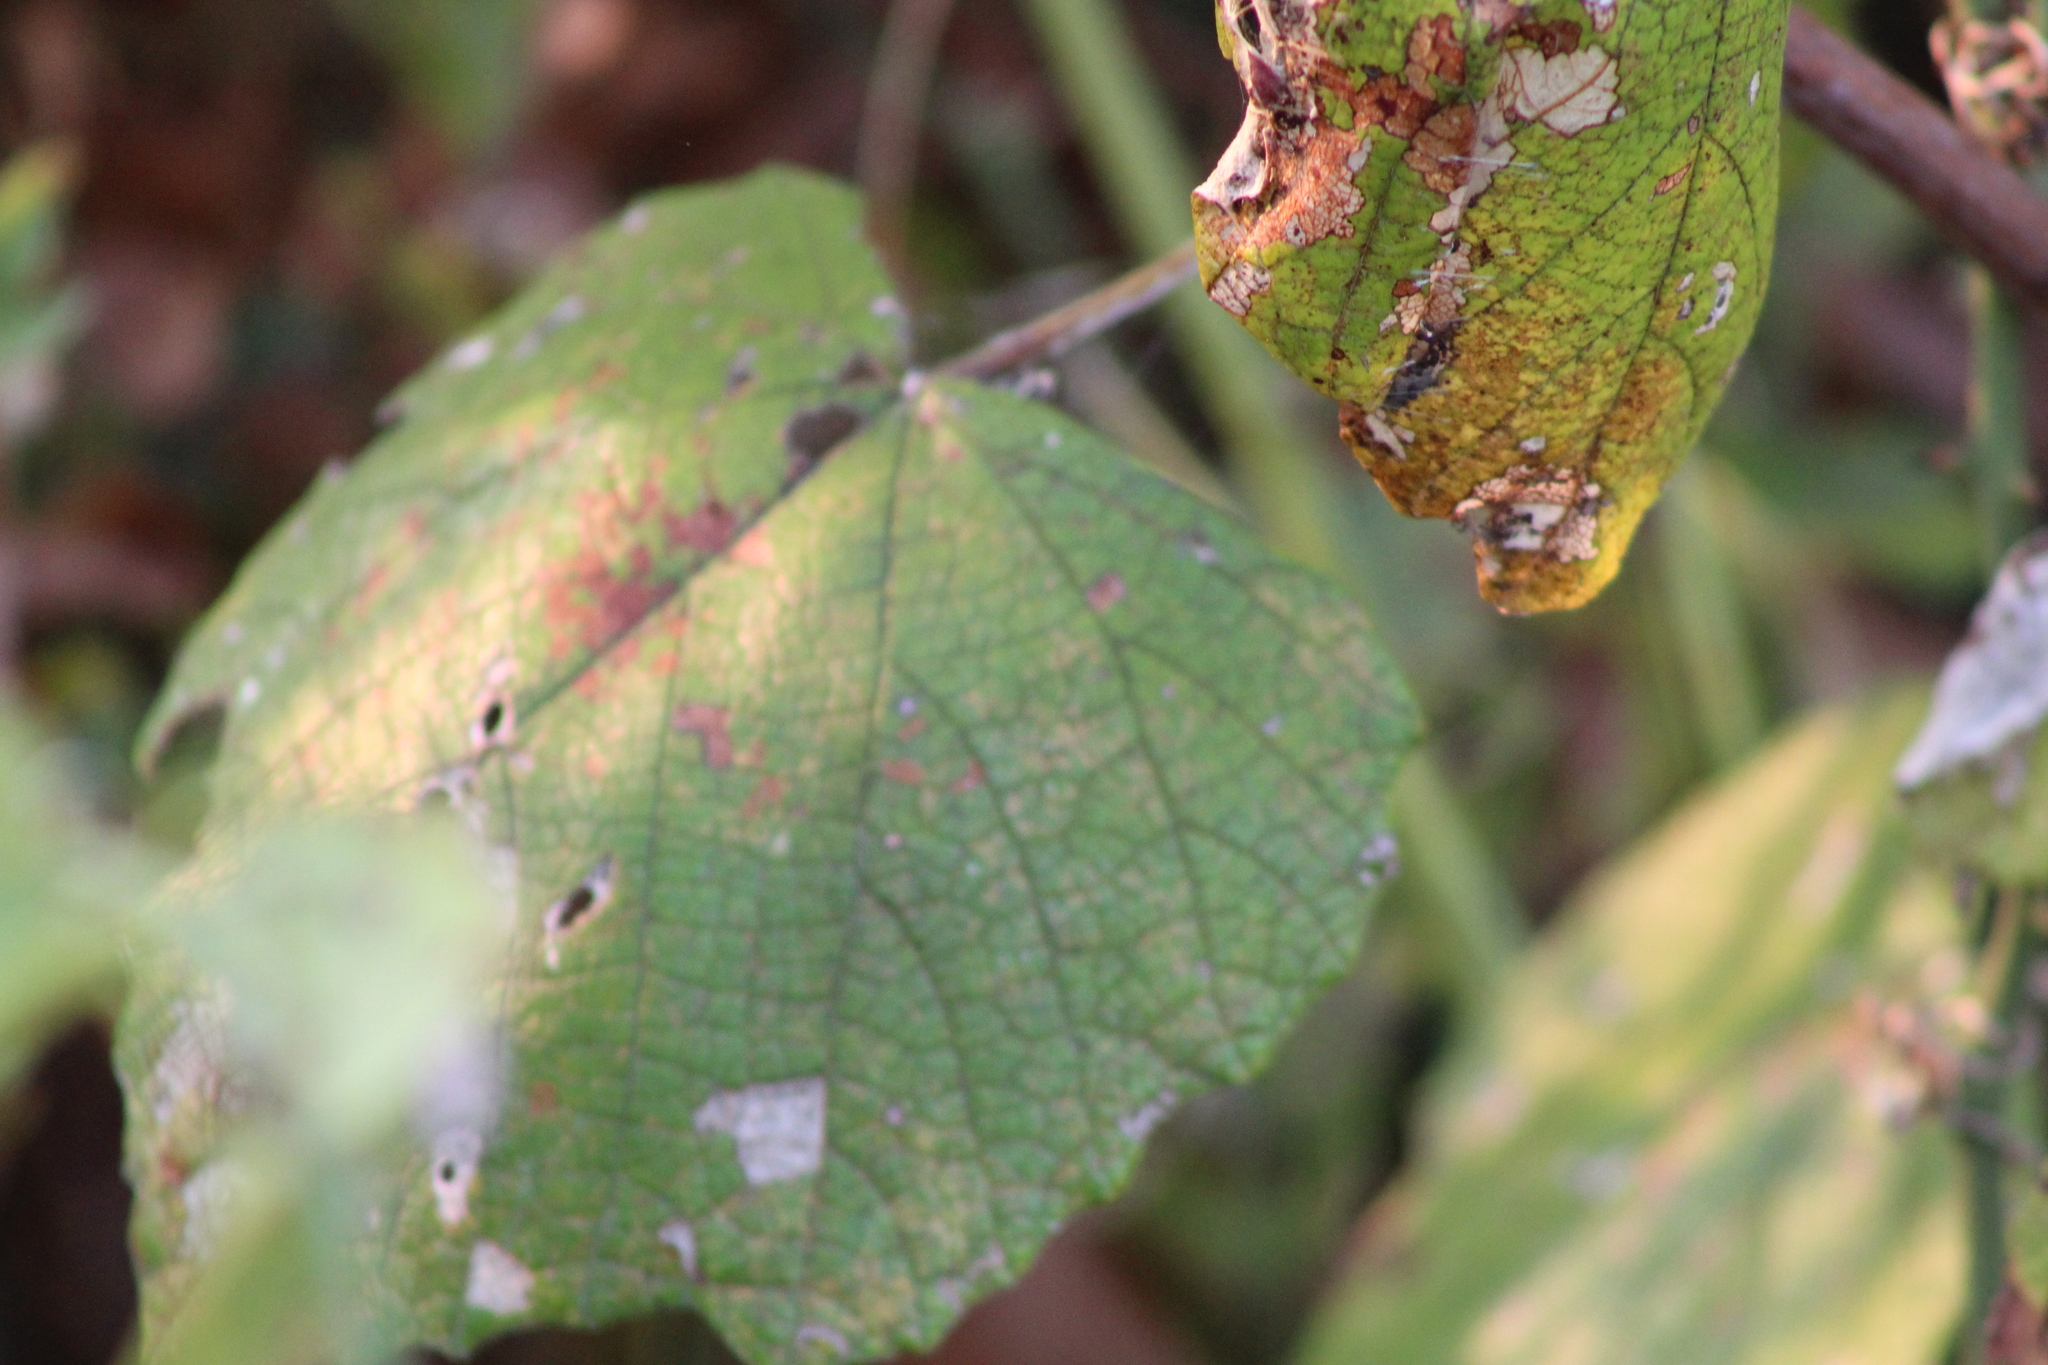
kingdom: Plantae
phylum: Tracheophyta
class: Magnoliopsida
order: Vitales
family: Vitaceae
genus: Vitis
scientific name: Vitis mustangensis
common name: Mustang grape
